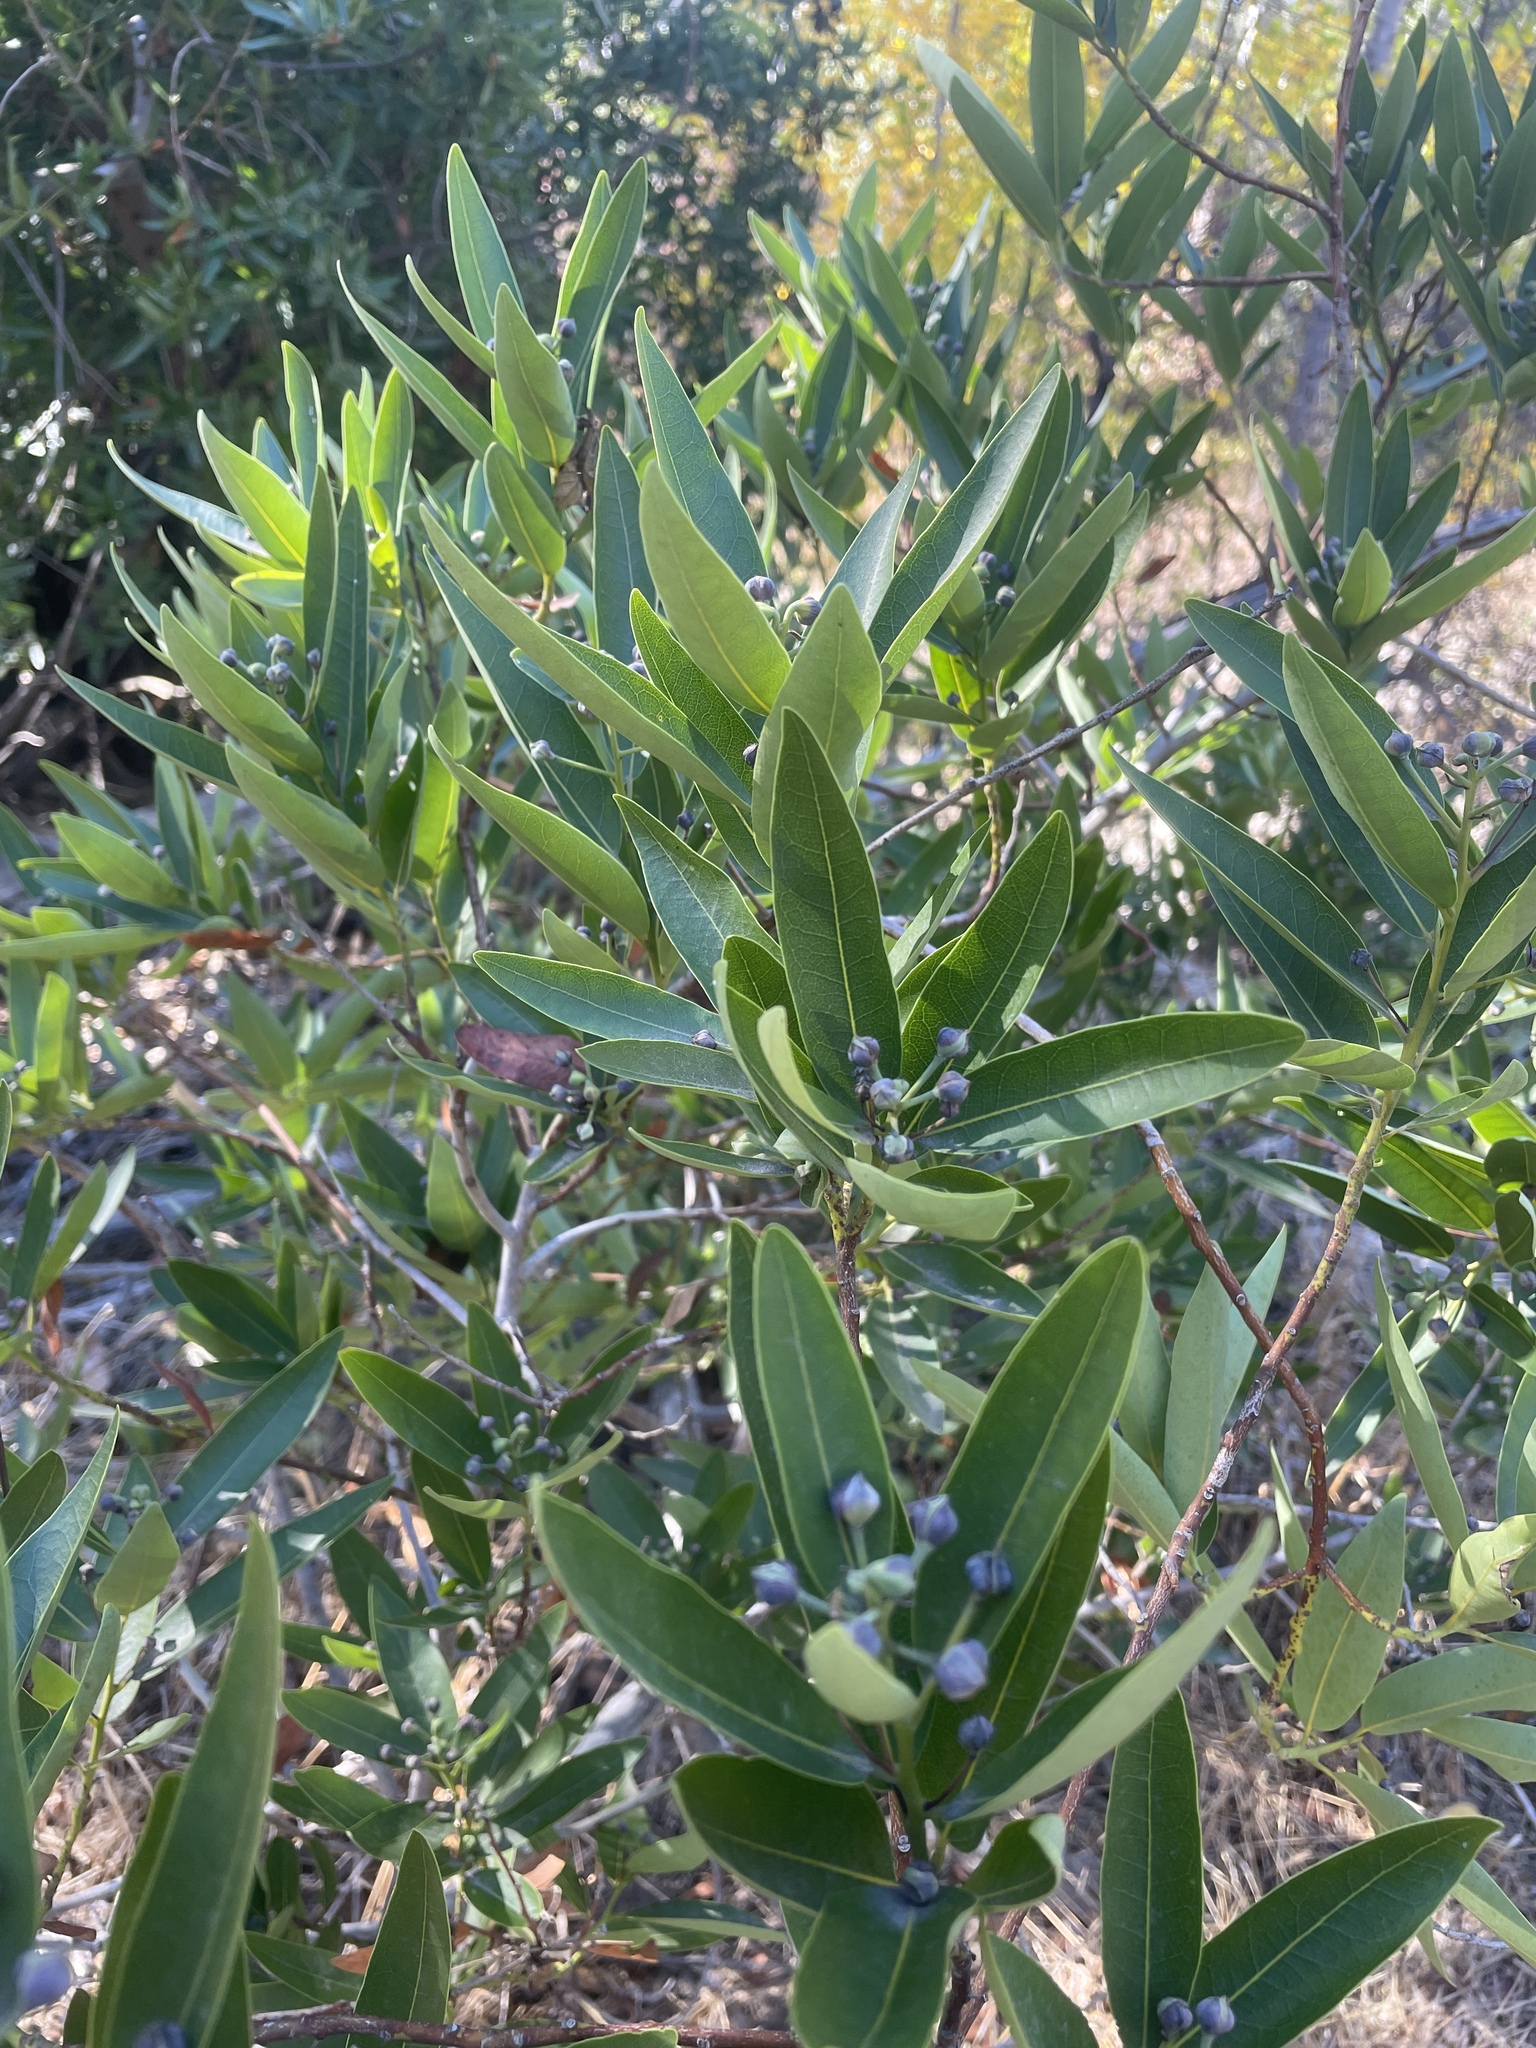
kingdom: Plantae
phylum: Tracheophyta
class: Magnoliopsida
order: Laurales
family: Lauraceae
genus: Umbellularia
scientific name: Umbellularia californica
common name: California bay
